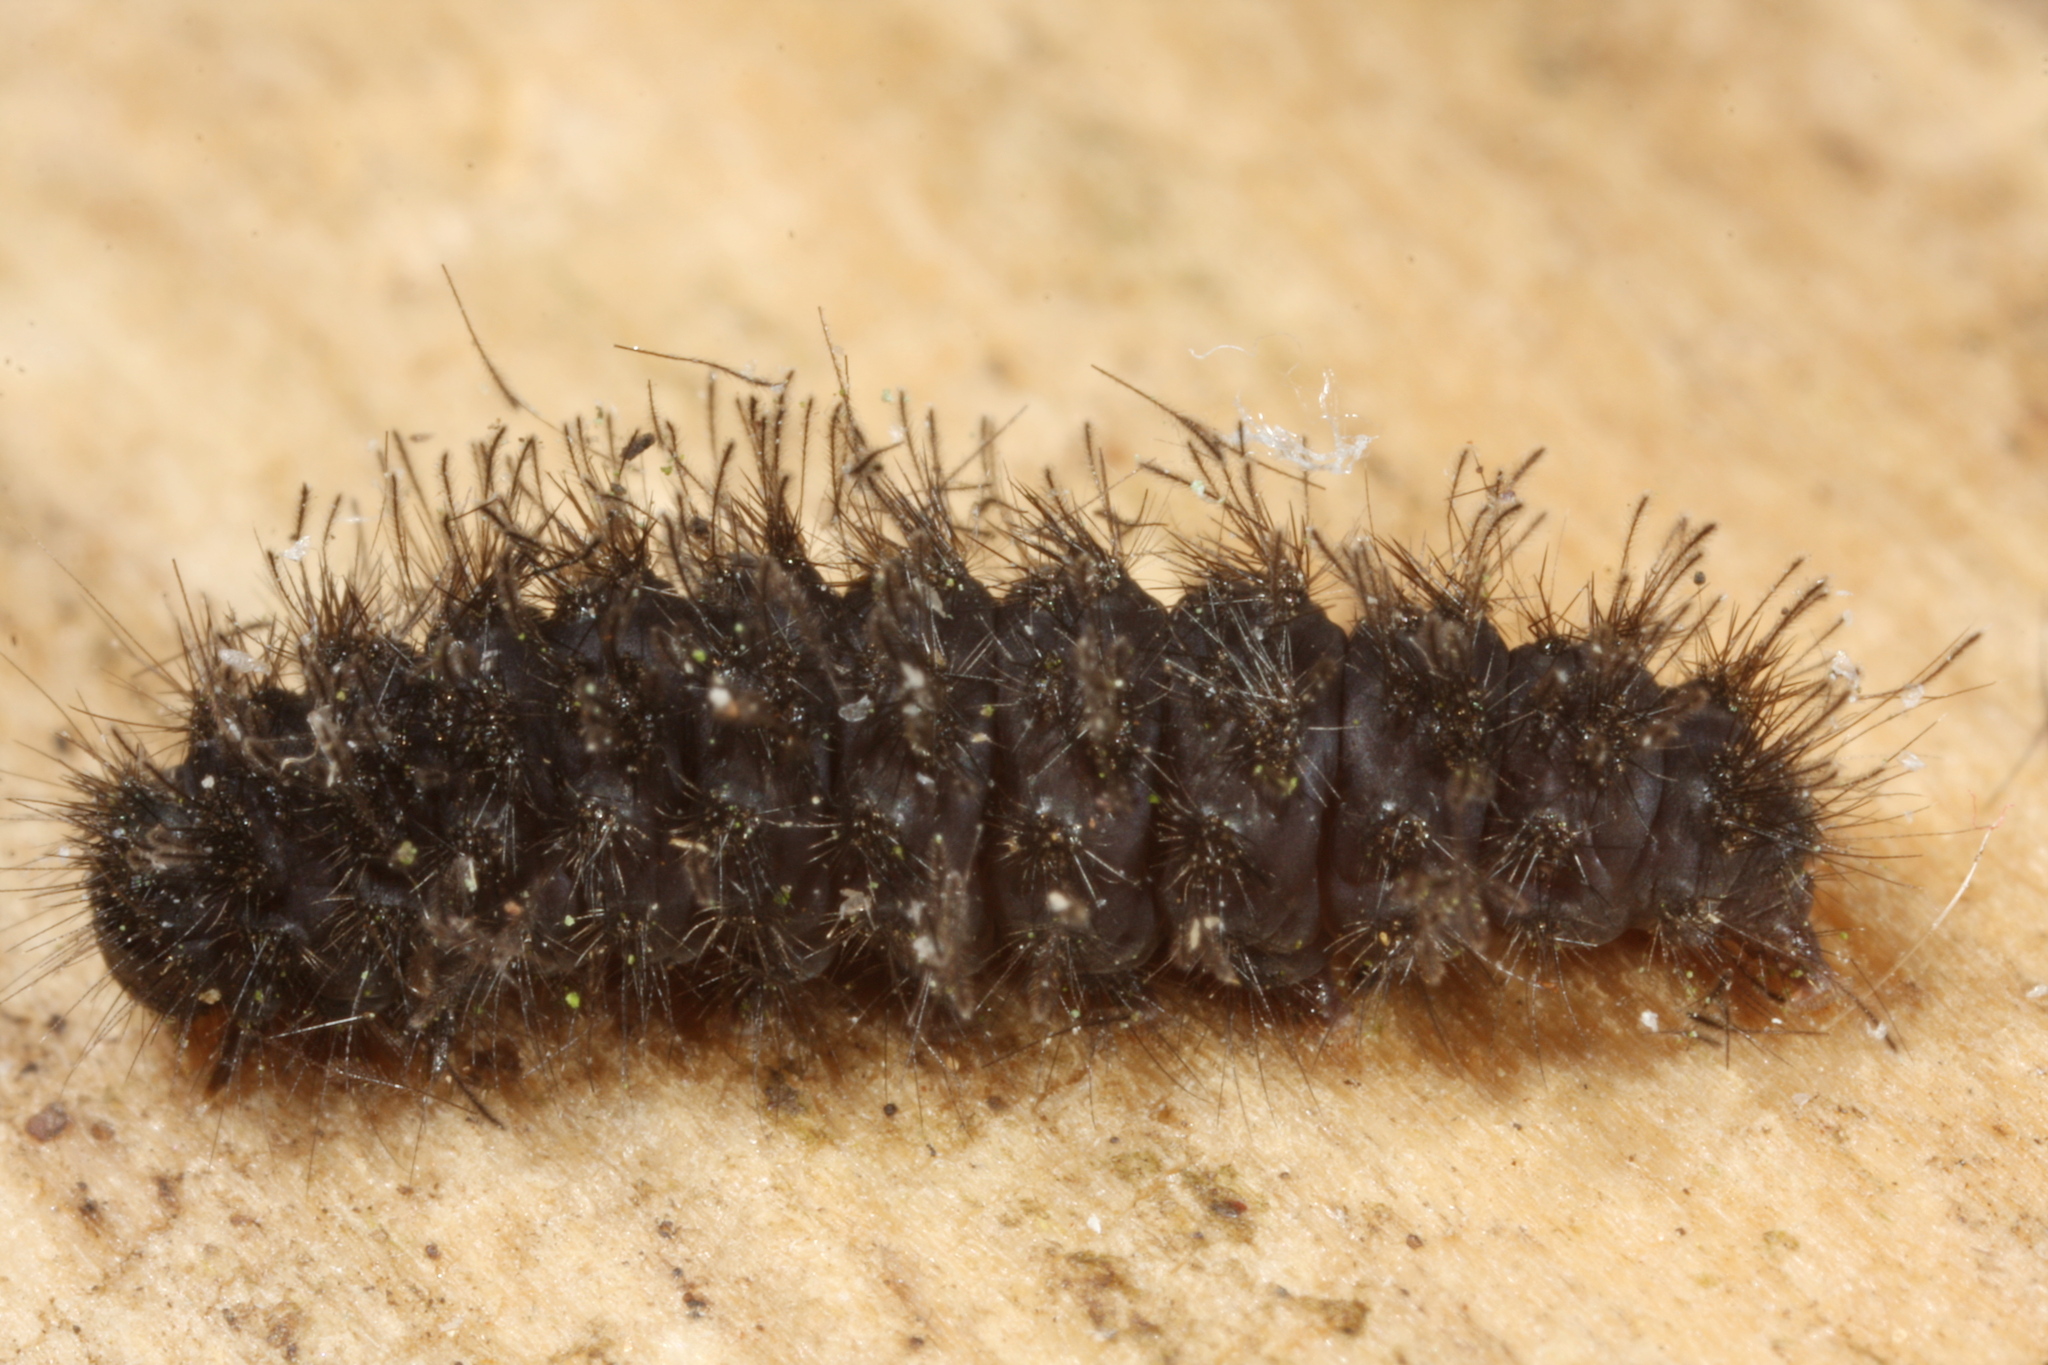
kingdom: Animalia
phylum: Arthropoda
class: Insecta
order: Lepidoptera
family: Erebidae
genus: Cybosia
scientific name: Cybosia mesomella
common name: Four-dotted footman
